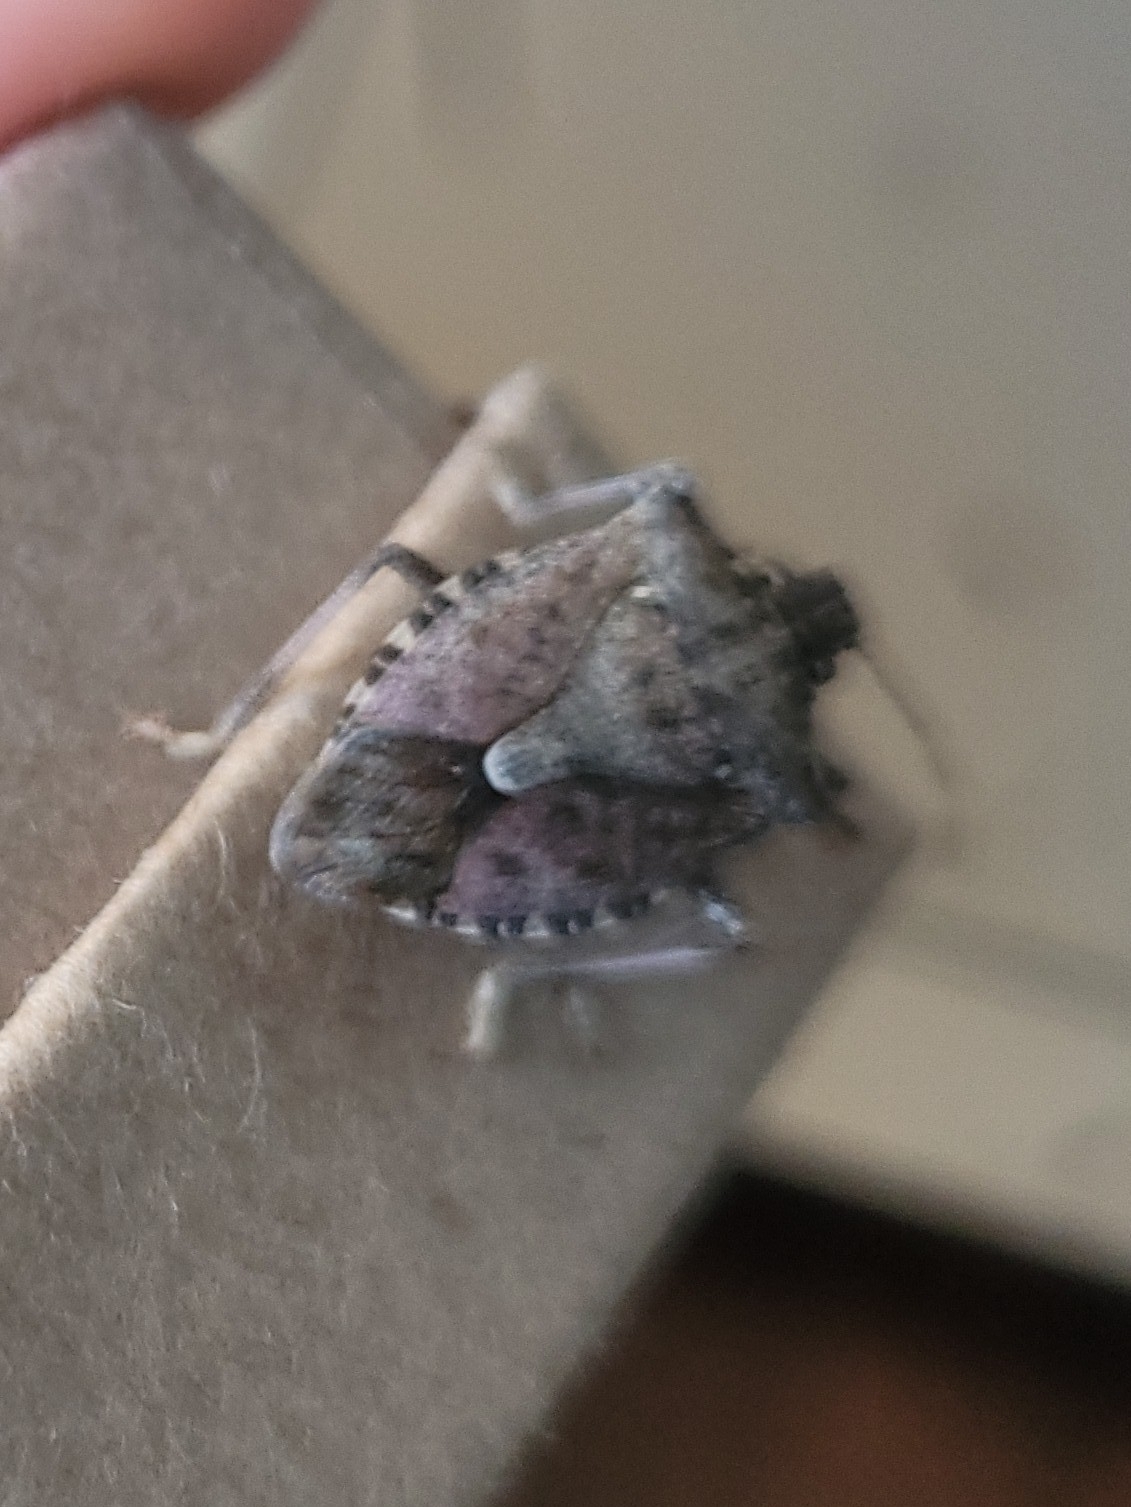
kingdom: Animalia
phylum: Arthropoda
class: Insecta
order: Hemiptera
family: Pentatomidae
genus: Halyomorpha
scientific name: Halyomorpha halys
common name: Brown marmorated stink bug
